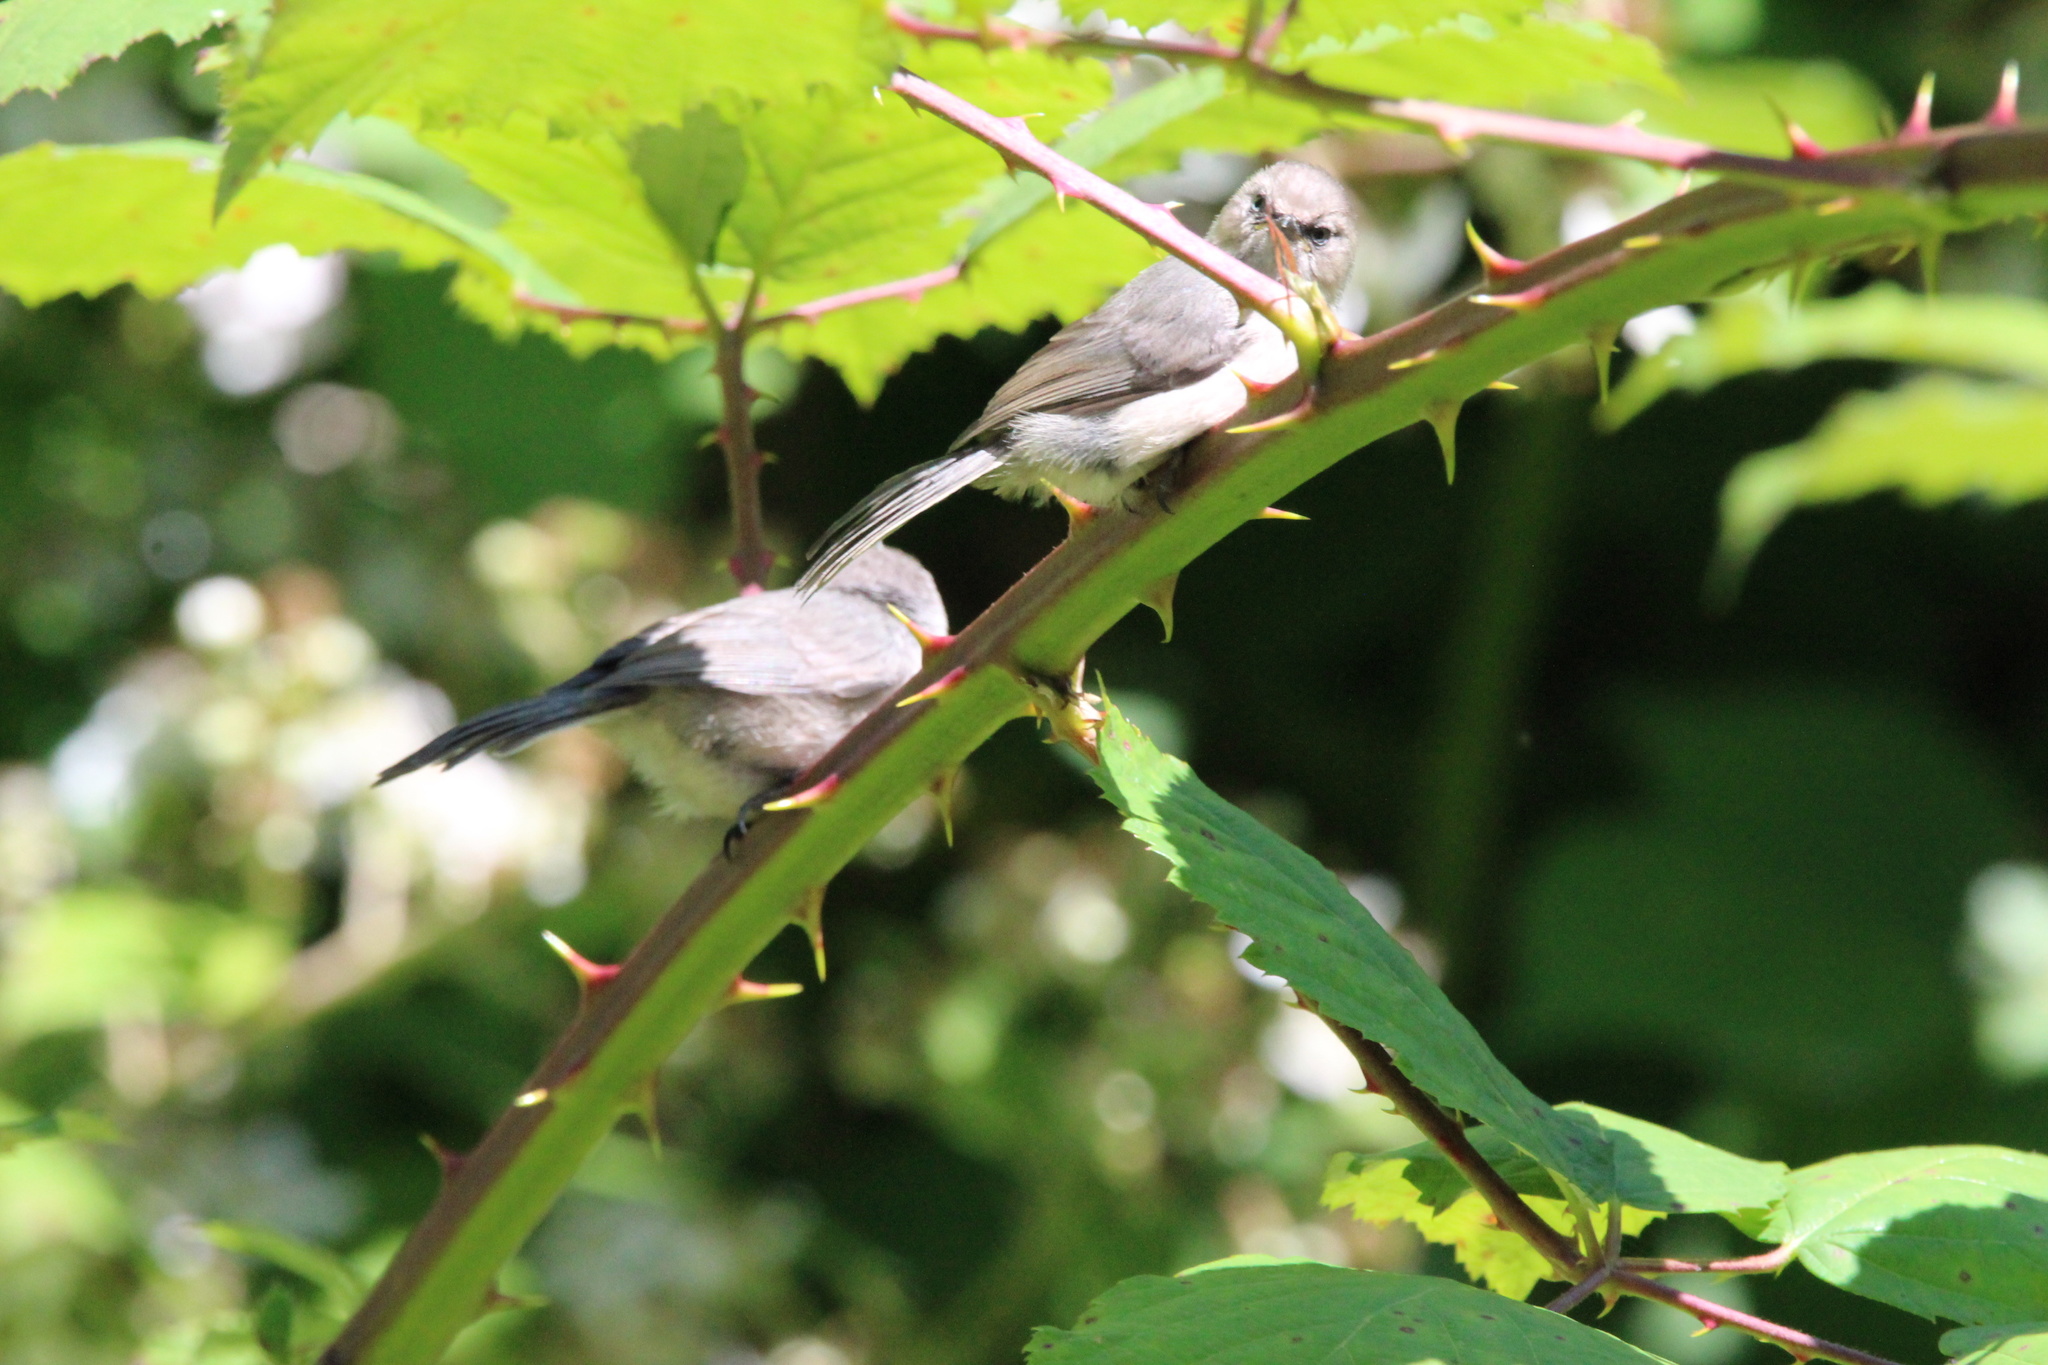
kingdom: Animalia
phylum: Chordata
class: Aves
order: Passeriformes
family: Aegithalidae
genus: Psaltriparus
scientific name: Psaltriparus minimus
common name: American bushtit
